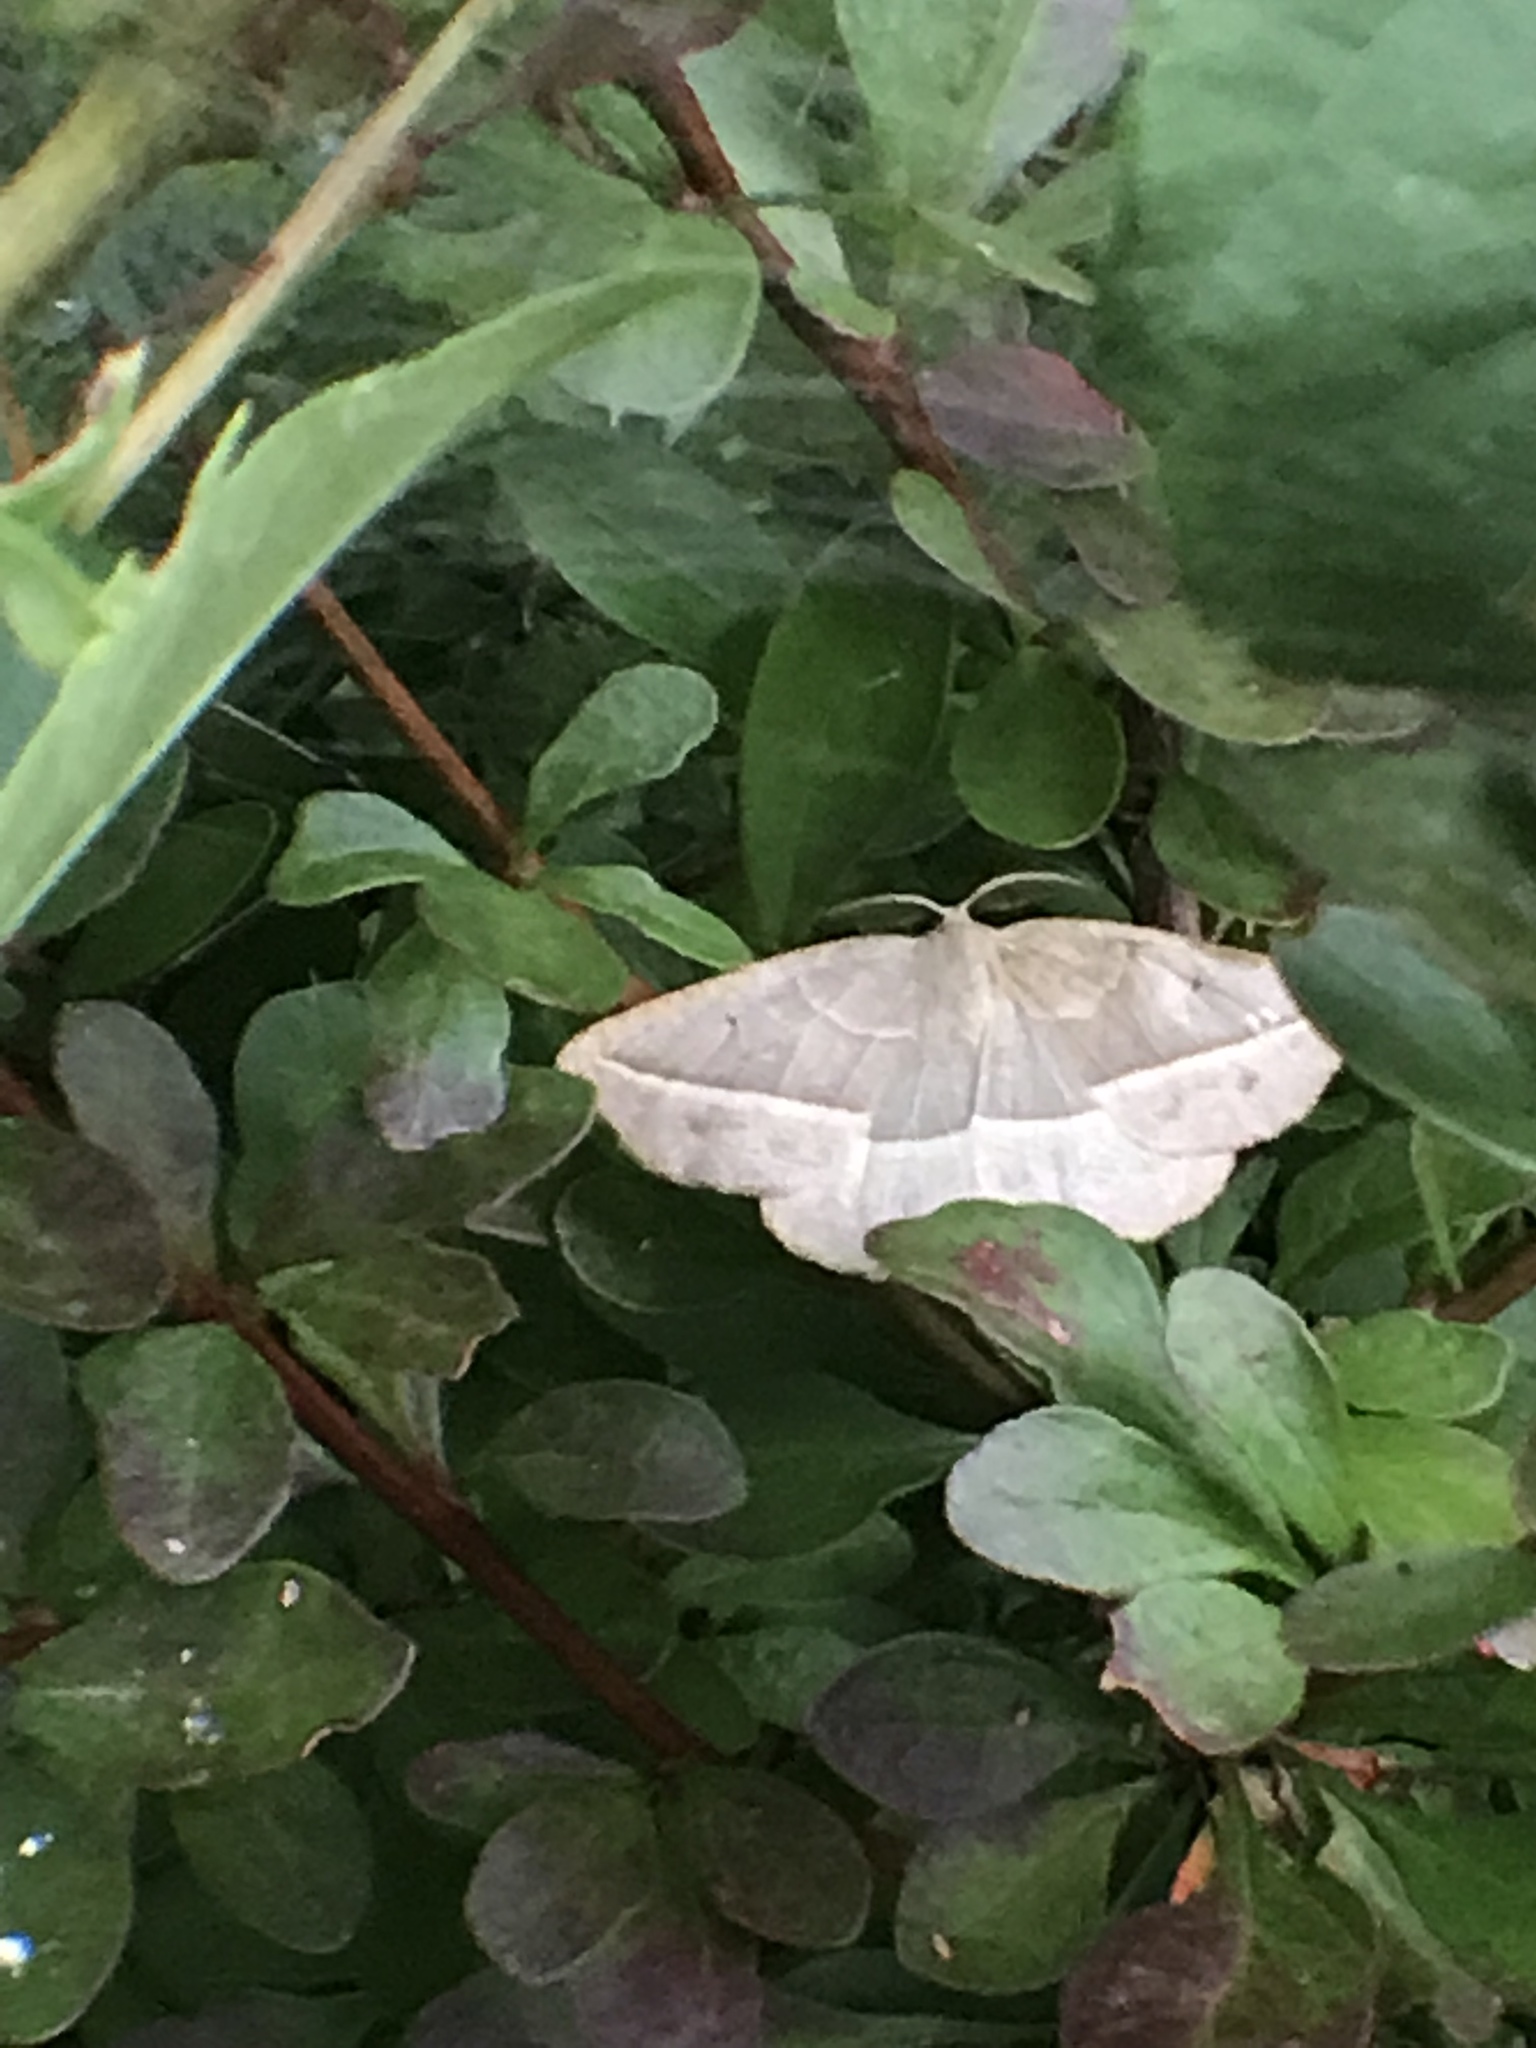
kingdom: Animalia
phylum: Arthropoda
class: Insecta
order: Lepidoptera
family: Geometridae
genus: Eusarca
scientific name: Eusarca confusaria
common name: Confused eusarca
